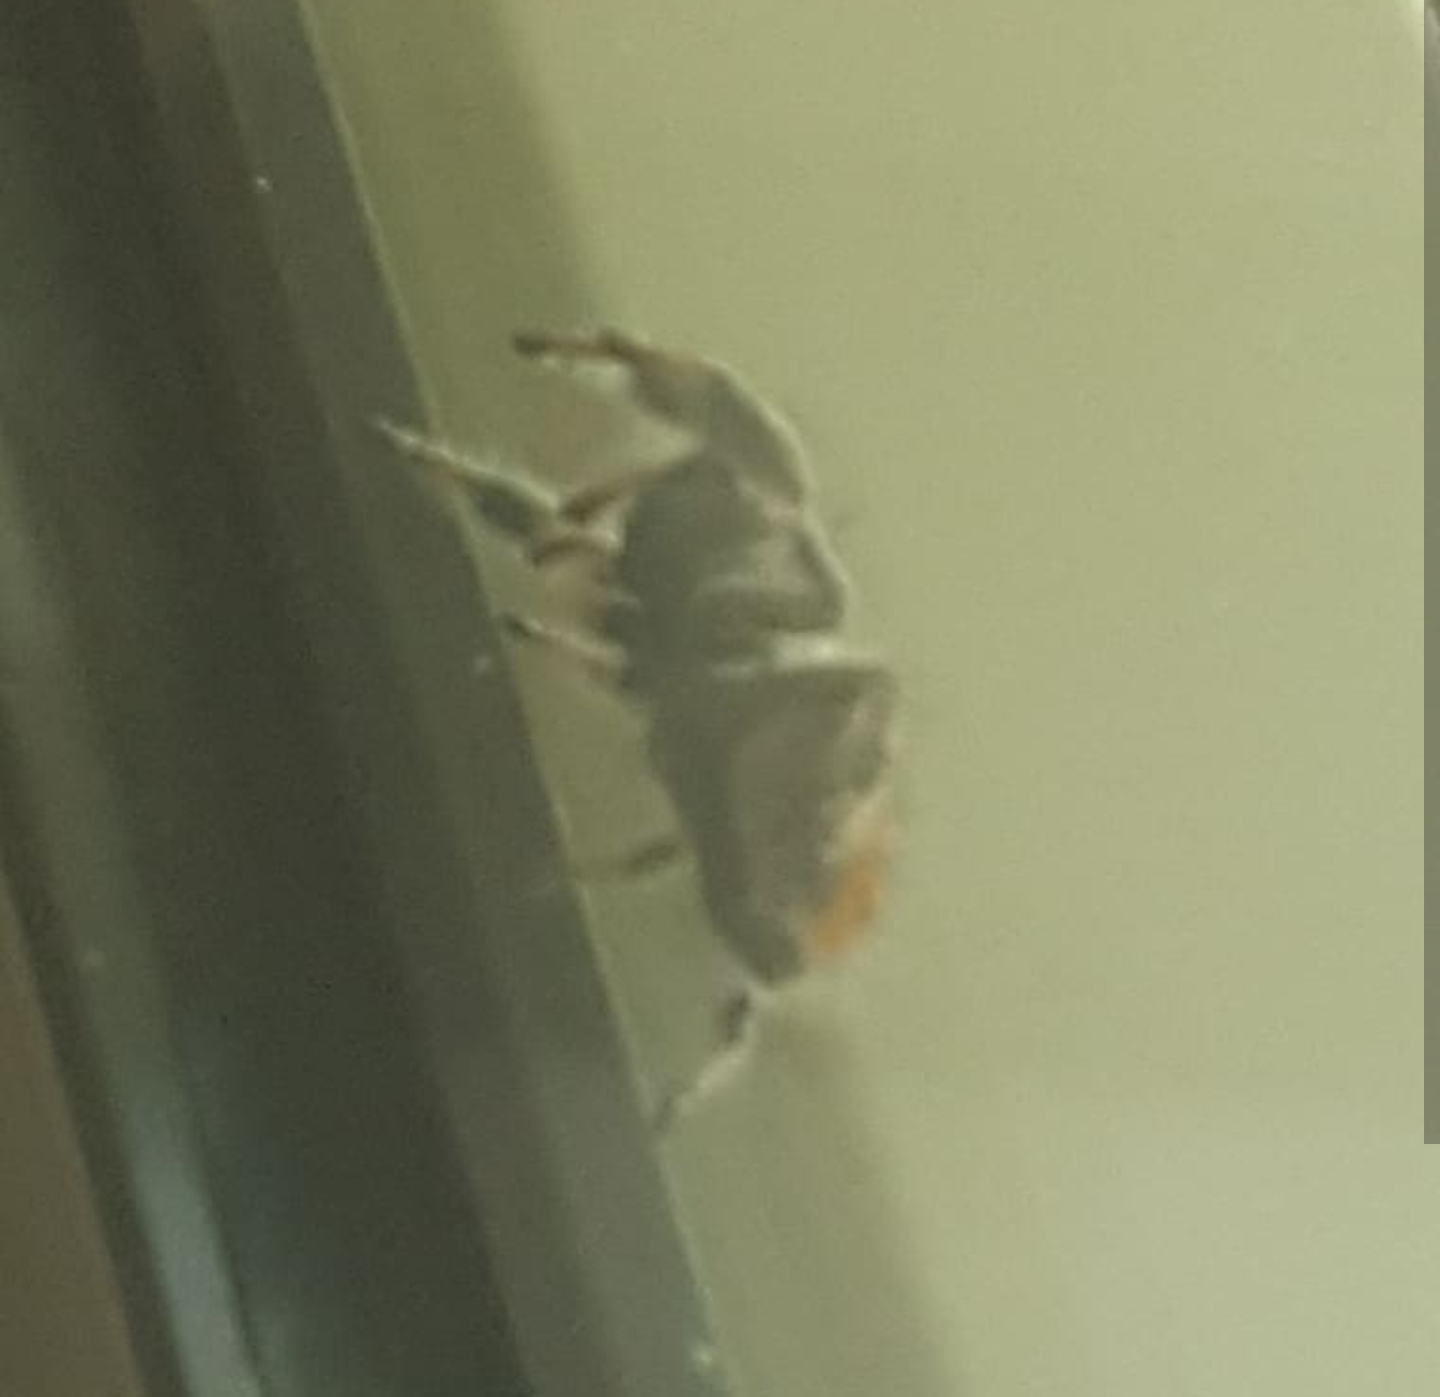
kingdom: Animalia
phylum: Arthropoda
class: Arachnida
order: Araneae
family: Salticidae
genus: Phidippus
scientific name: Phidippus regius
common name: Regal jumper
